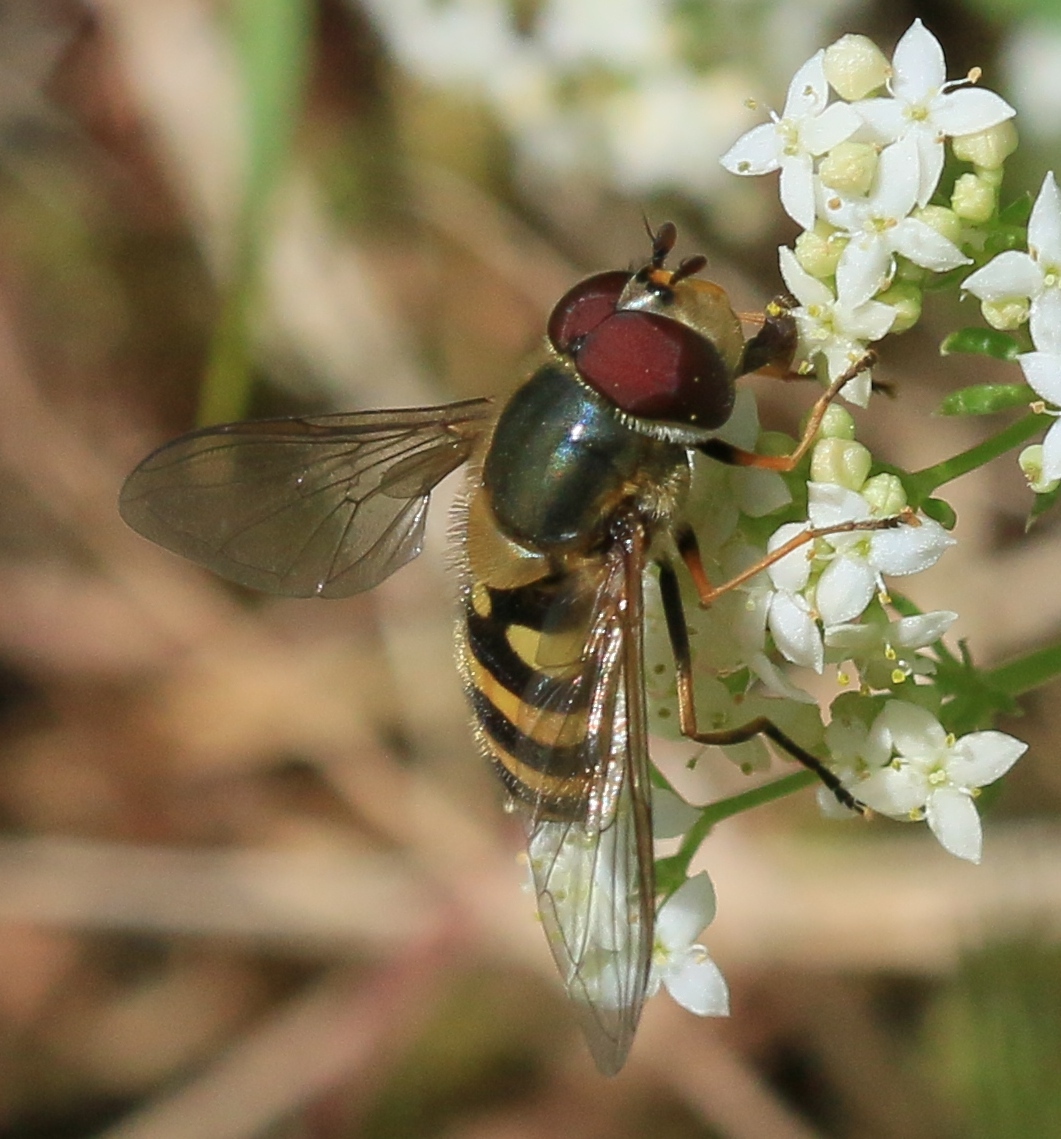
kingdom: Animalia
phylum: Arthropoda
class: Insecta
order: Diptera
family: Syrphidae
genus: Syrphus
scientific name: Syrphus torvus
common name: Hairy-eyed flower fly
